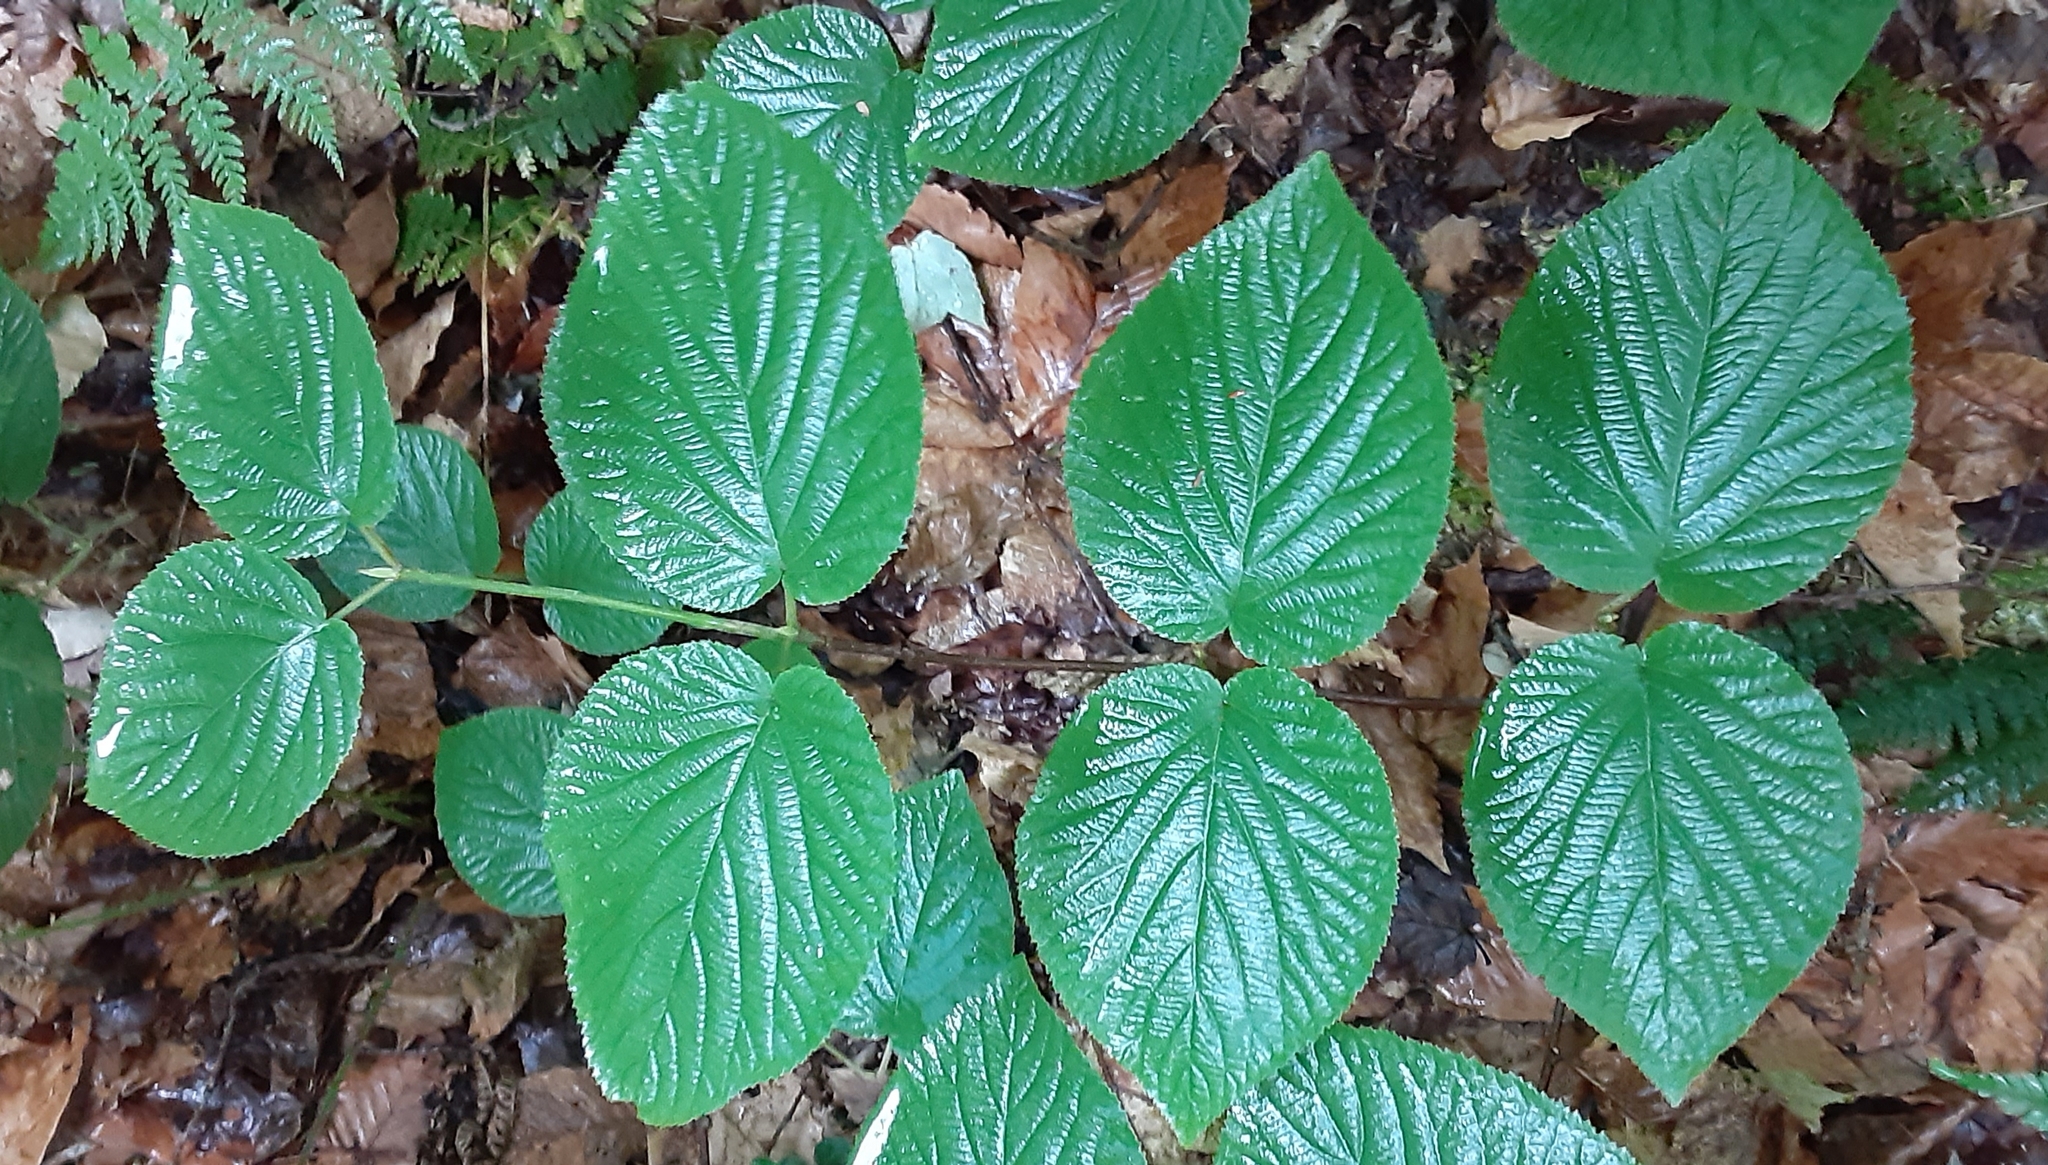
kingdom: Plantae
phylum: Tracheophyta
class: Magnoliopsida
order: Dipsacales
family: Viburnaceae
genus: Viburnum
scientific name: Viburnum lantanoides
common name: Hobblebush
